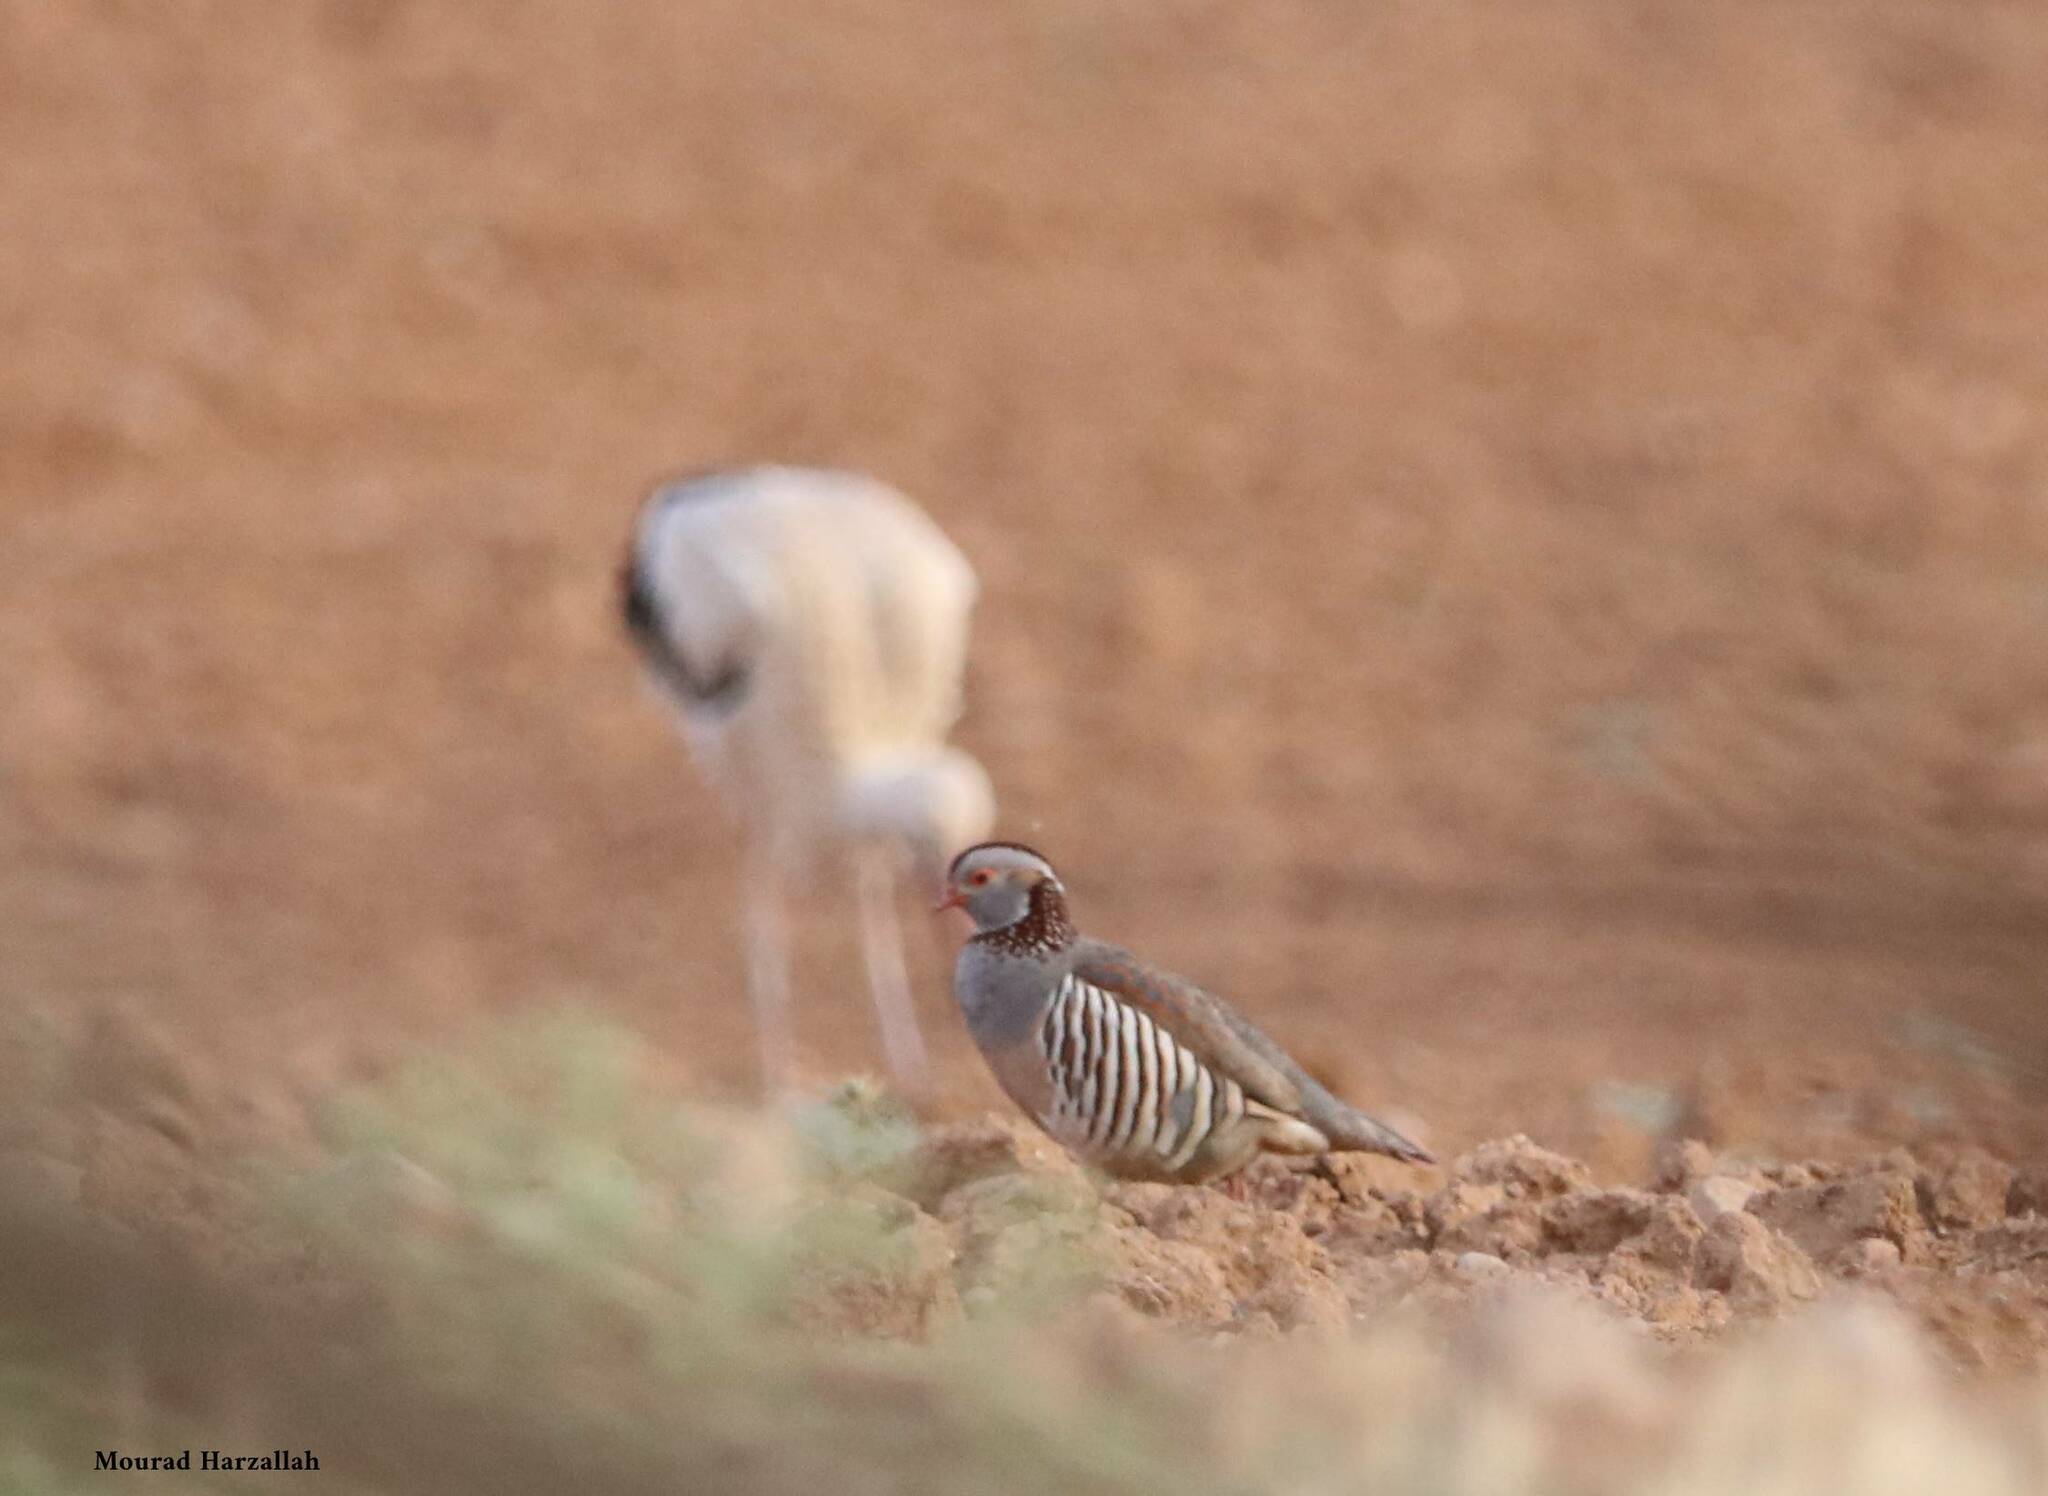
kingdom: Animalia
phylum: Chordata
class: Aves
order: Galliformes
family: Phasianidae
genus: Alectoris
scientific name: Alectoris barbara
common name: Barbary partridge
